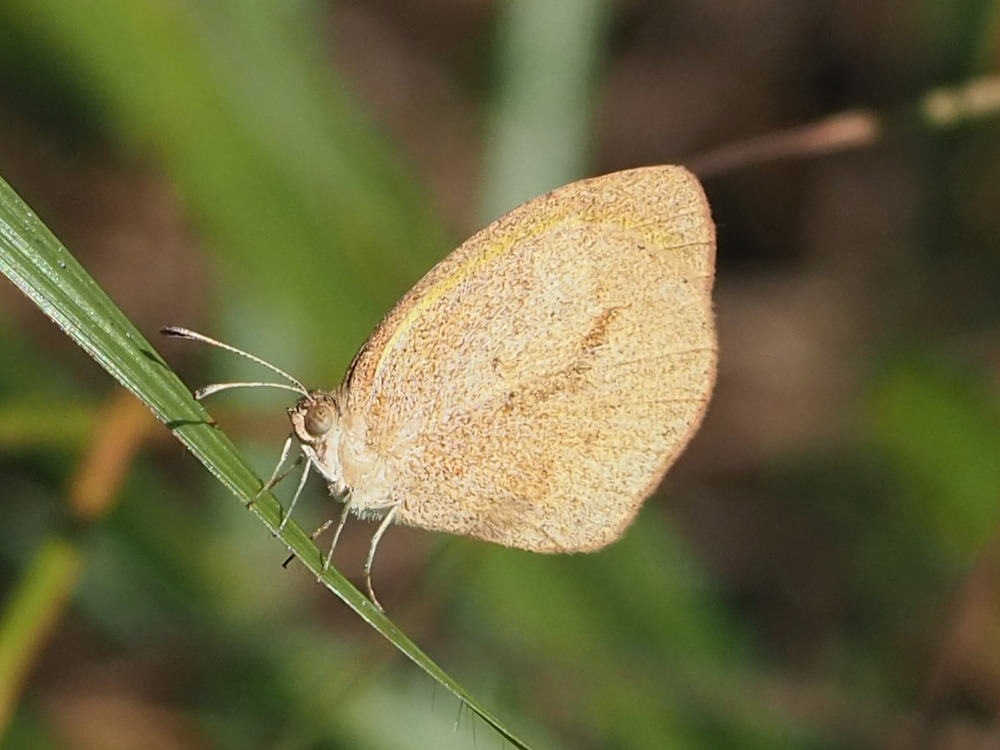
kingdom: Animalia
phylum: Arthropoda
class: Insecta
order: Lepidoptera
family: Pieridae
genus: Eurema
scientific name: Eurema daira
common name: Barred sulphur
